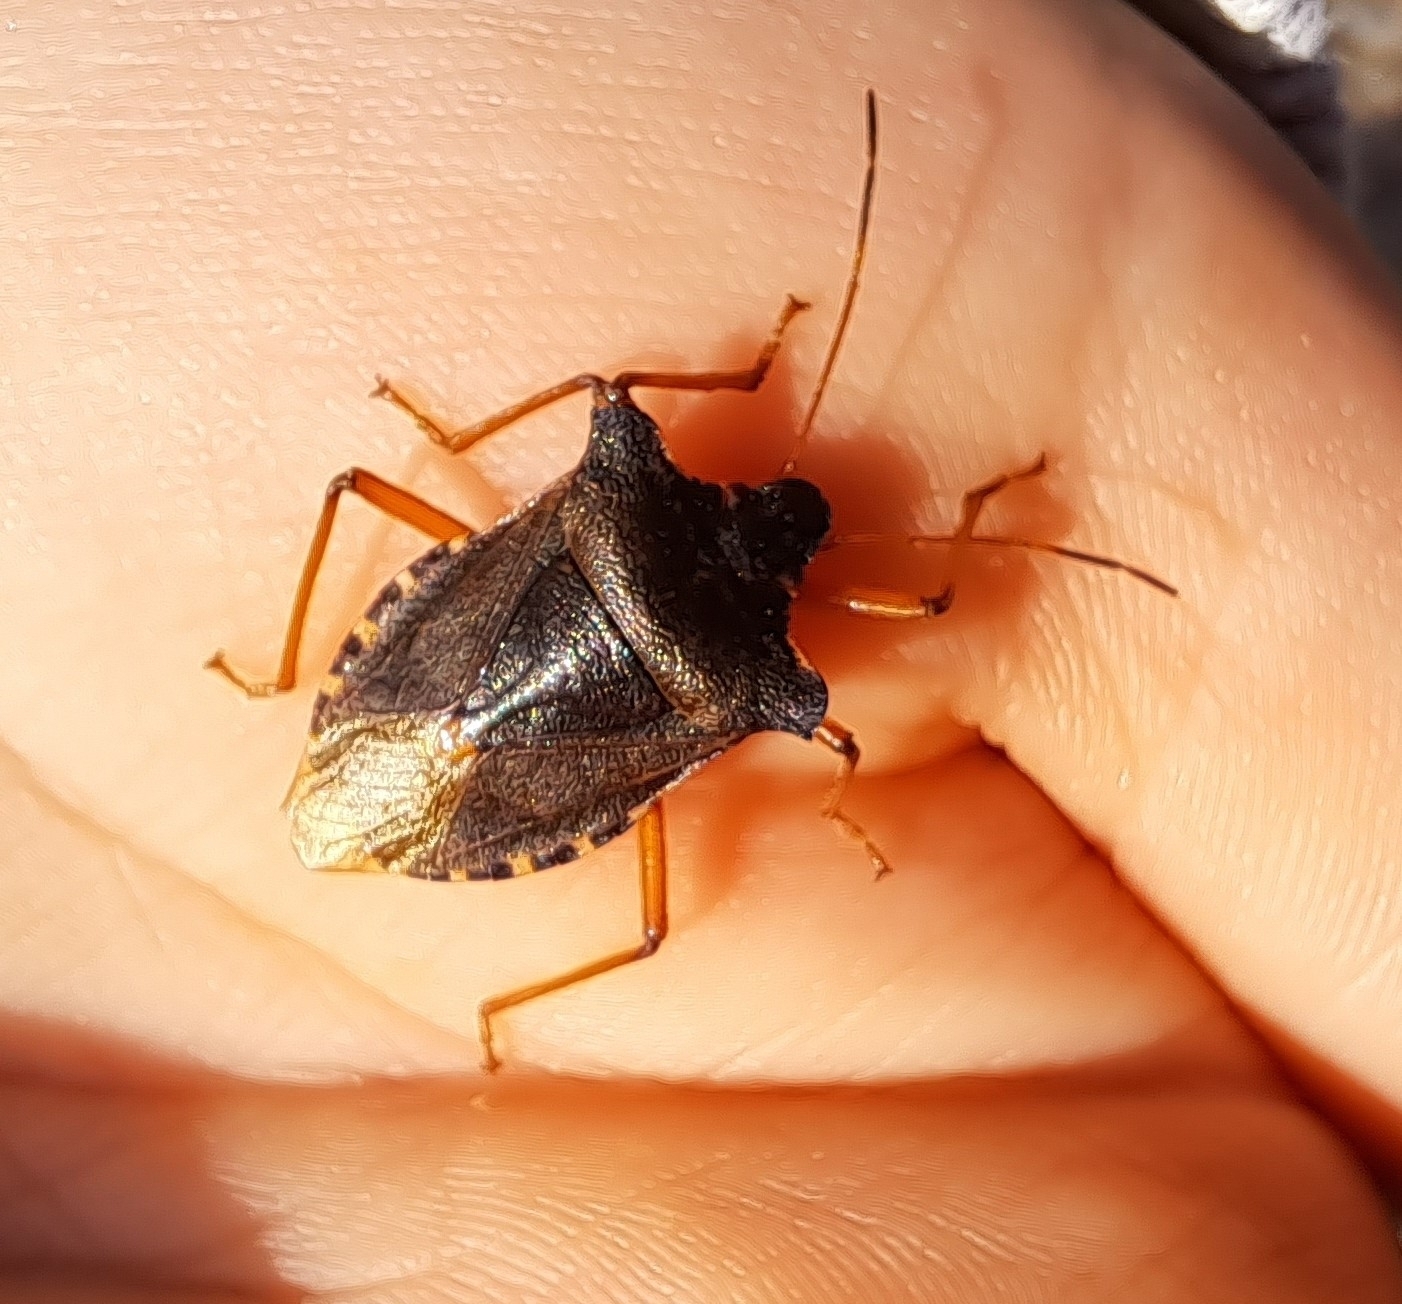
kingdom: Animalia
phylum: Arthropoda
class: Insecta
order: Hemiptera
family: Pentatomidae
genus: Pentatoma
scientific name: Pentatoma rufipes
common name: Forest bug
